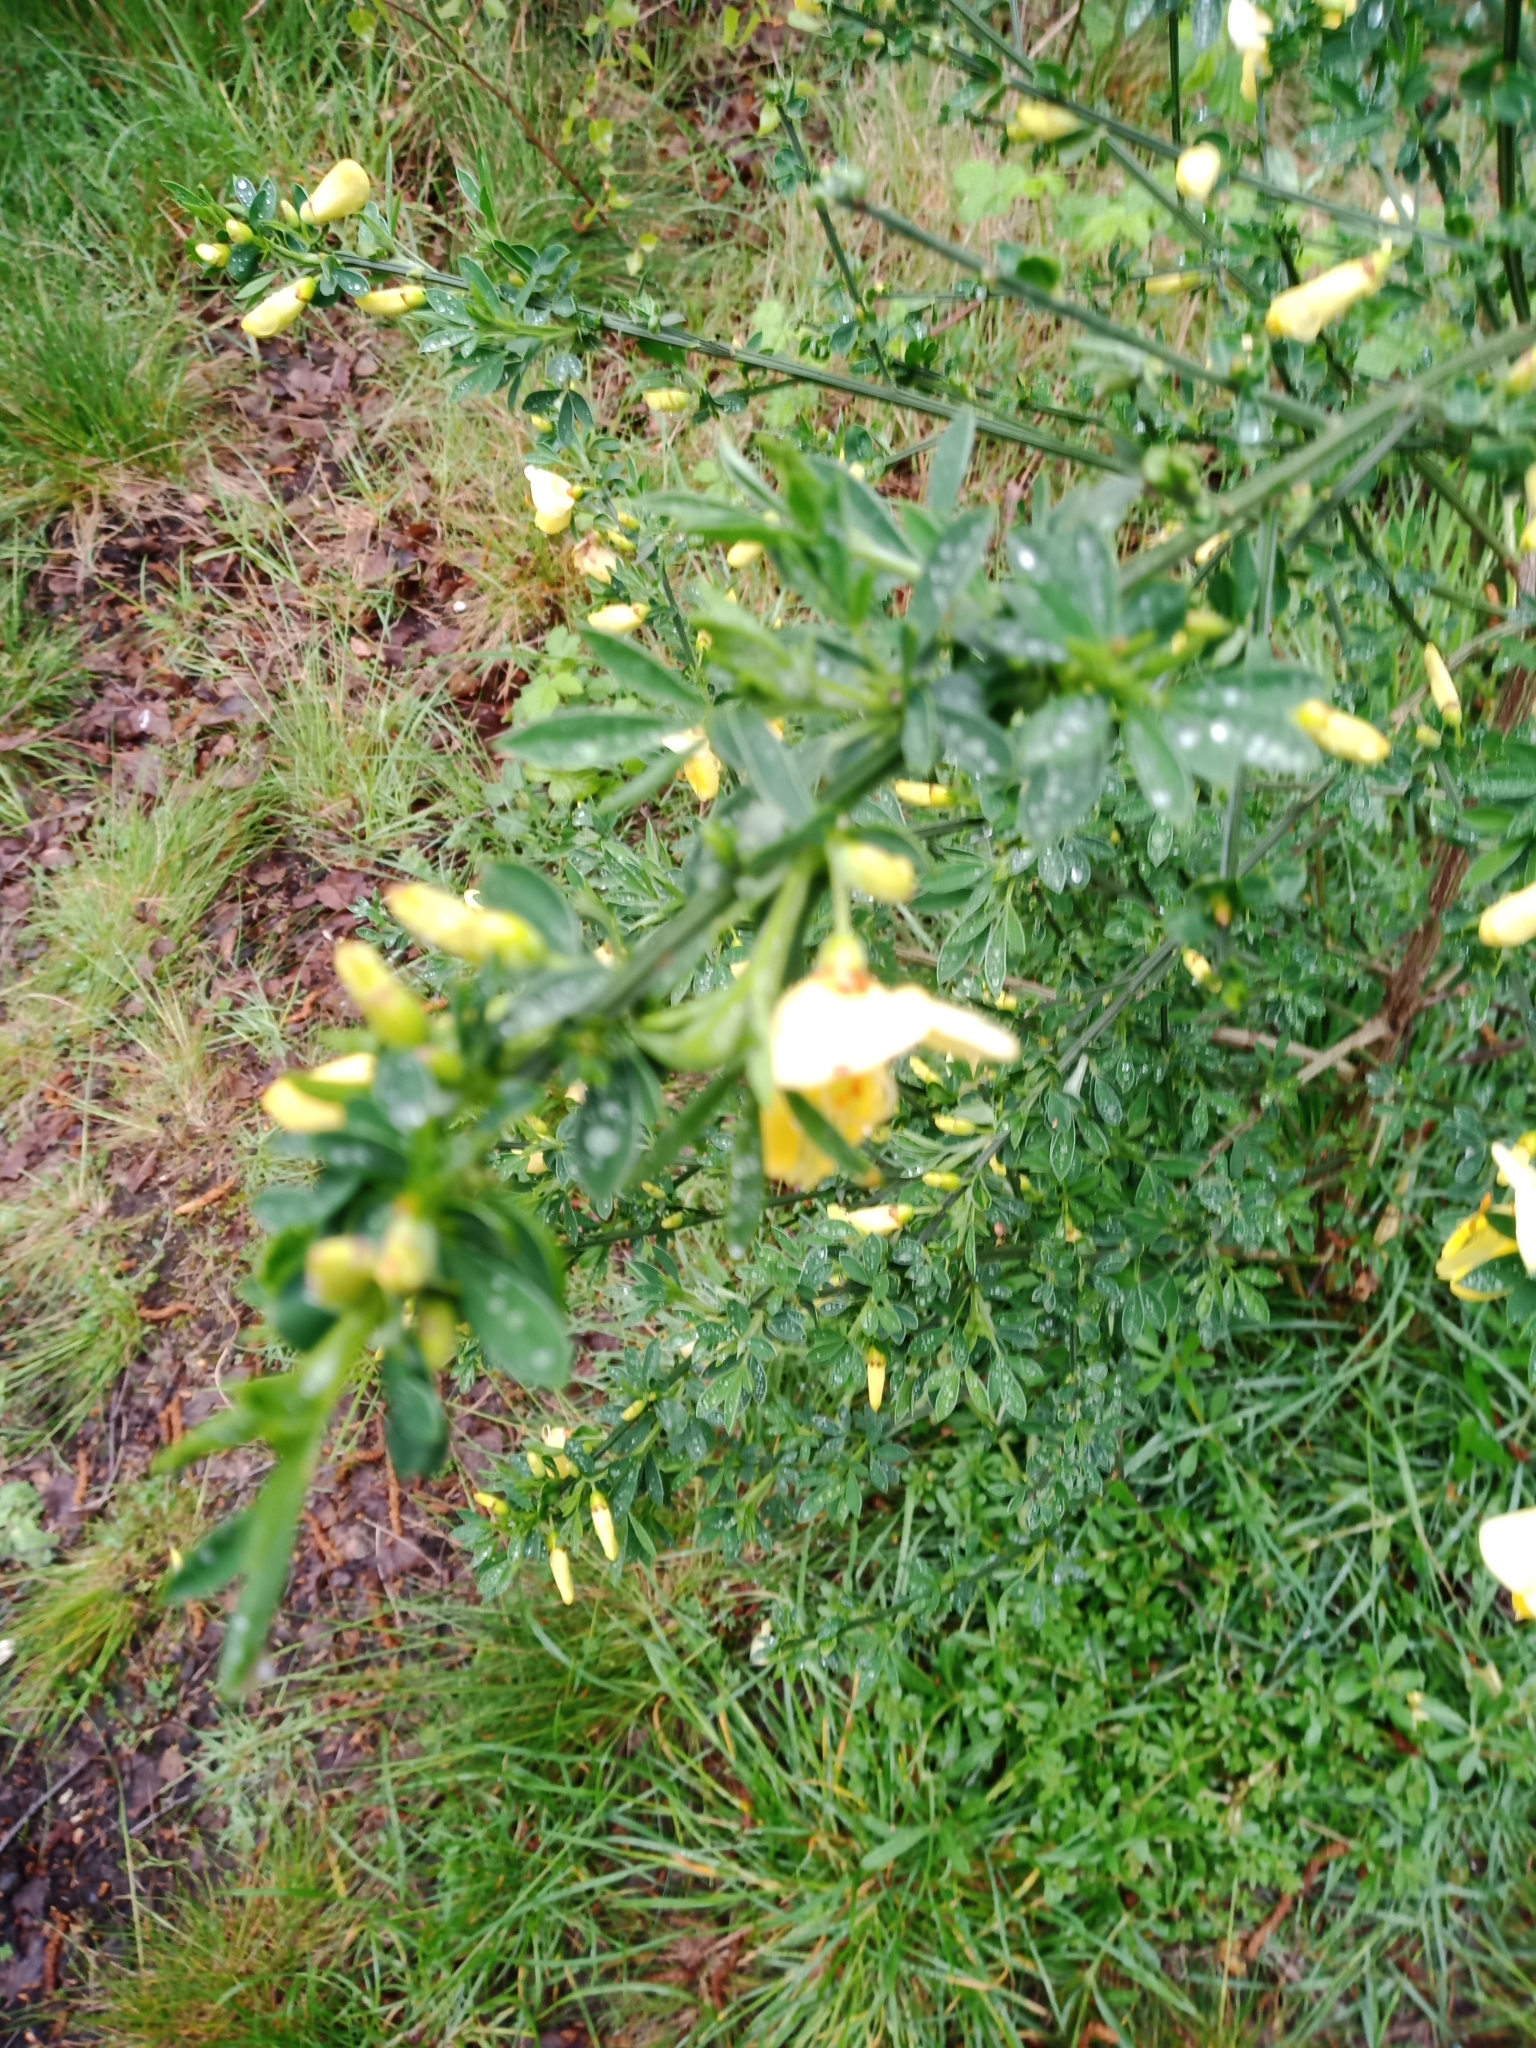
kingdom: Plantae
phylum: Tracheophyta
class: Magnoliopsida
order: Fabales
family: Fabaceae
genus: Cytisus
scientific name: Cytisus scoparius
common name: Scotch broom
